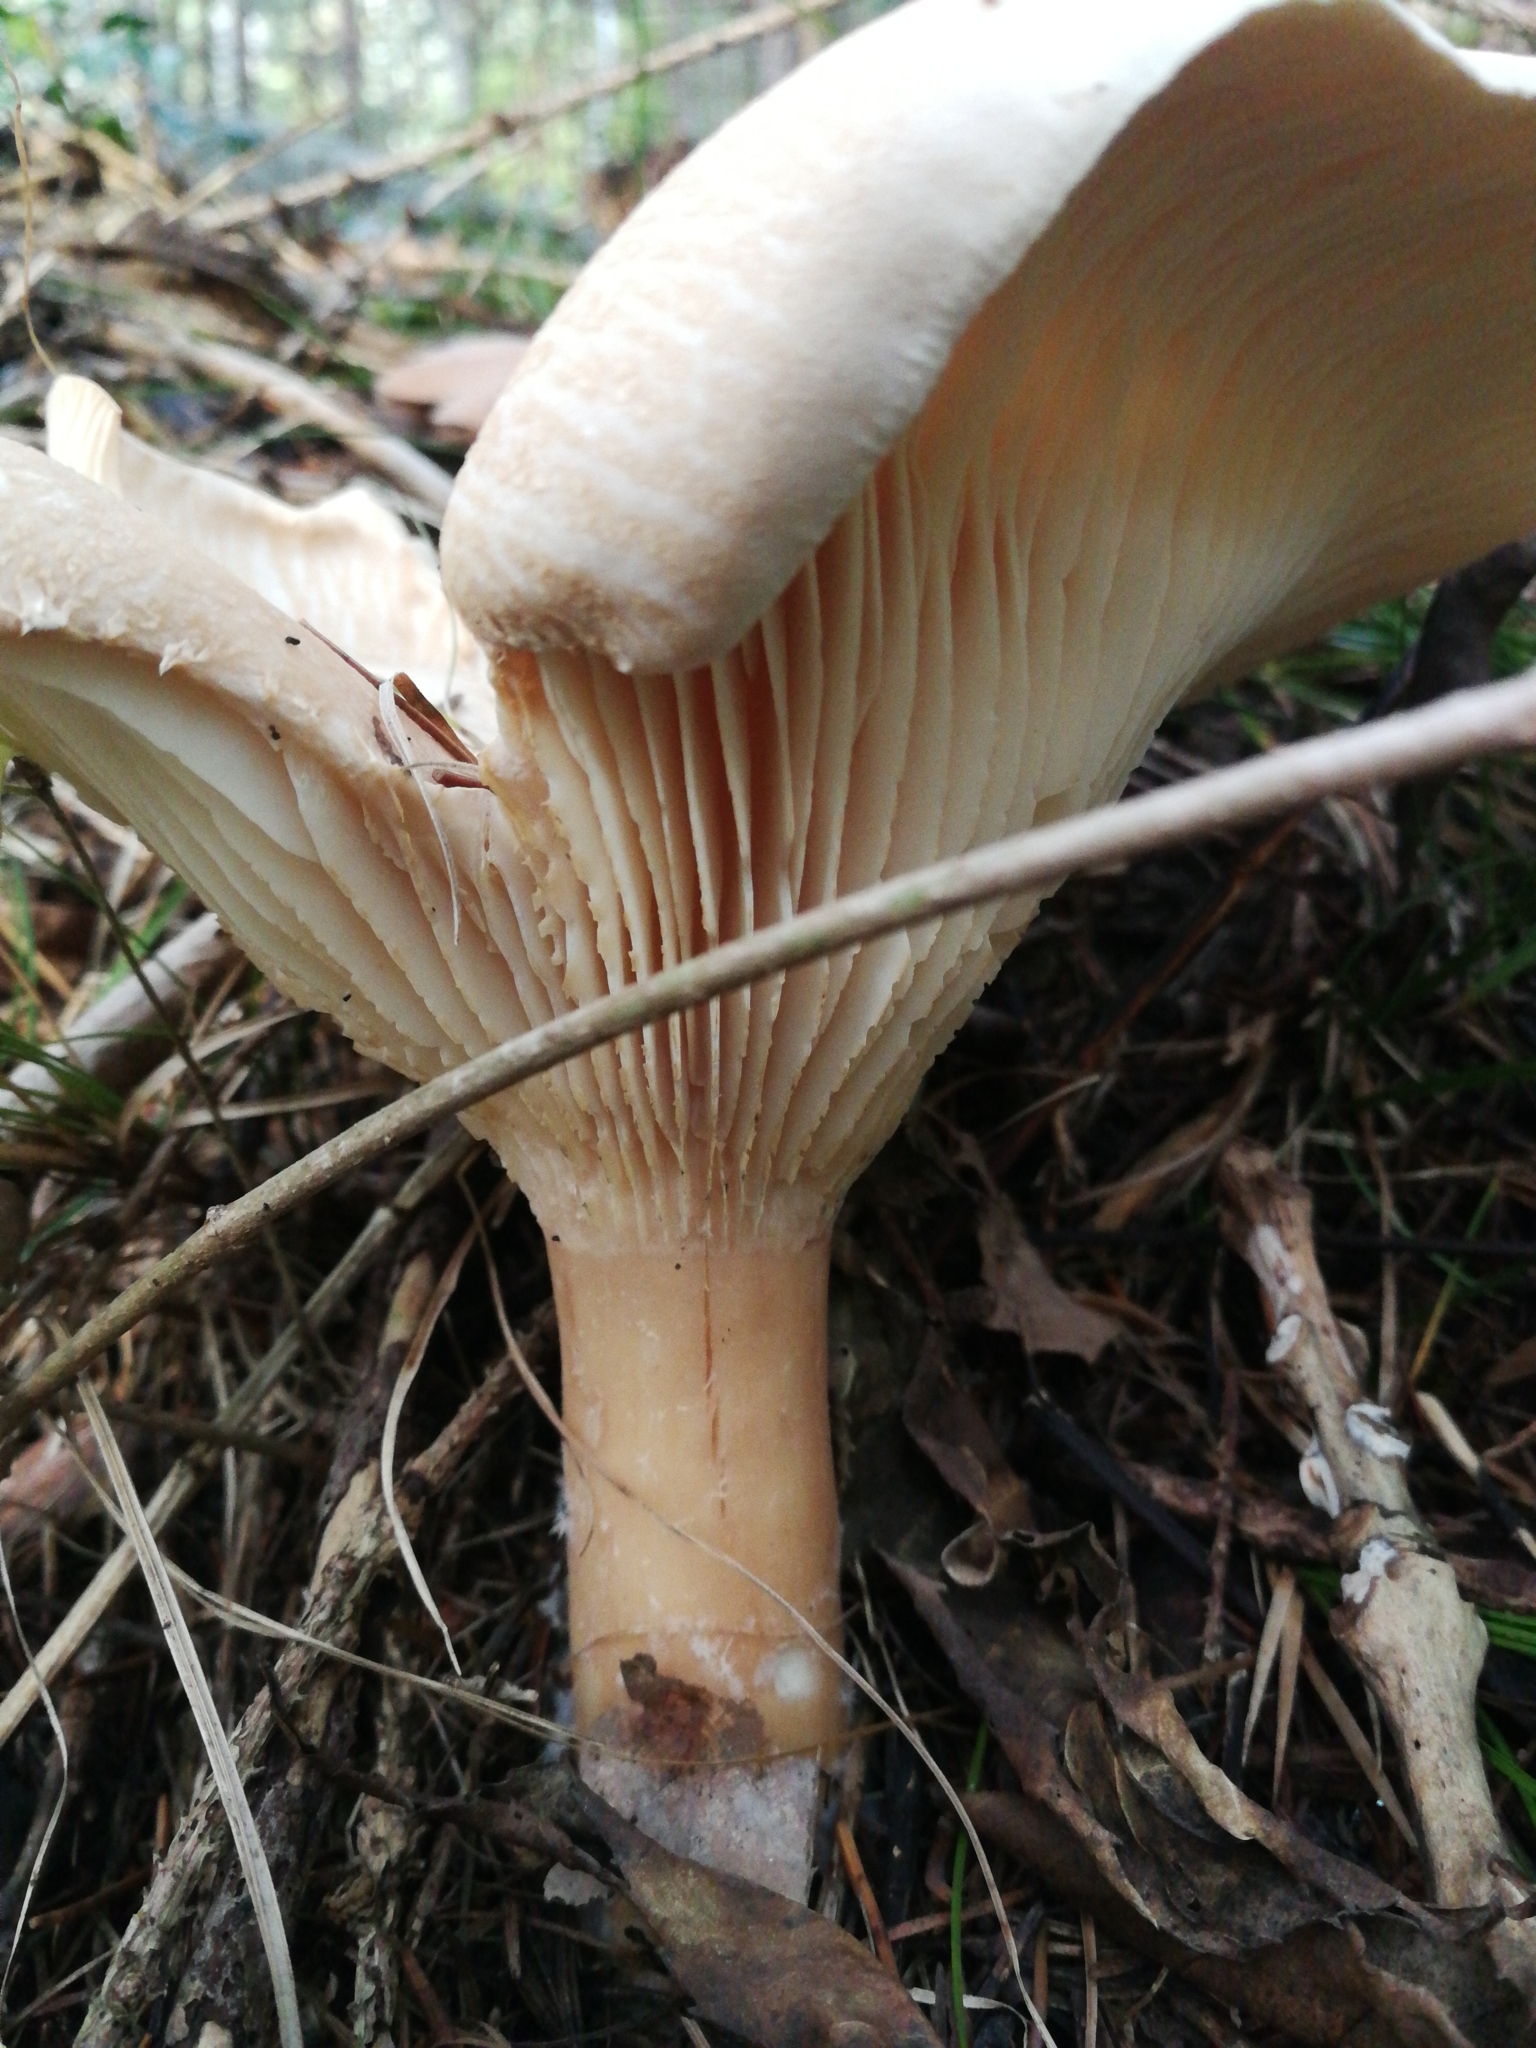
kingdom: Fungi
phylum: Basidiomycota
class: Agaricomycetes
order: Agaricales
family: Tricholomataceae
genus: Infundibulicybe
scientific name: Infundibulicybe geotropa
